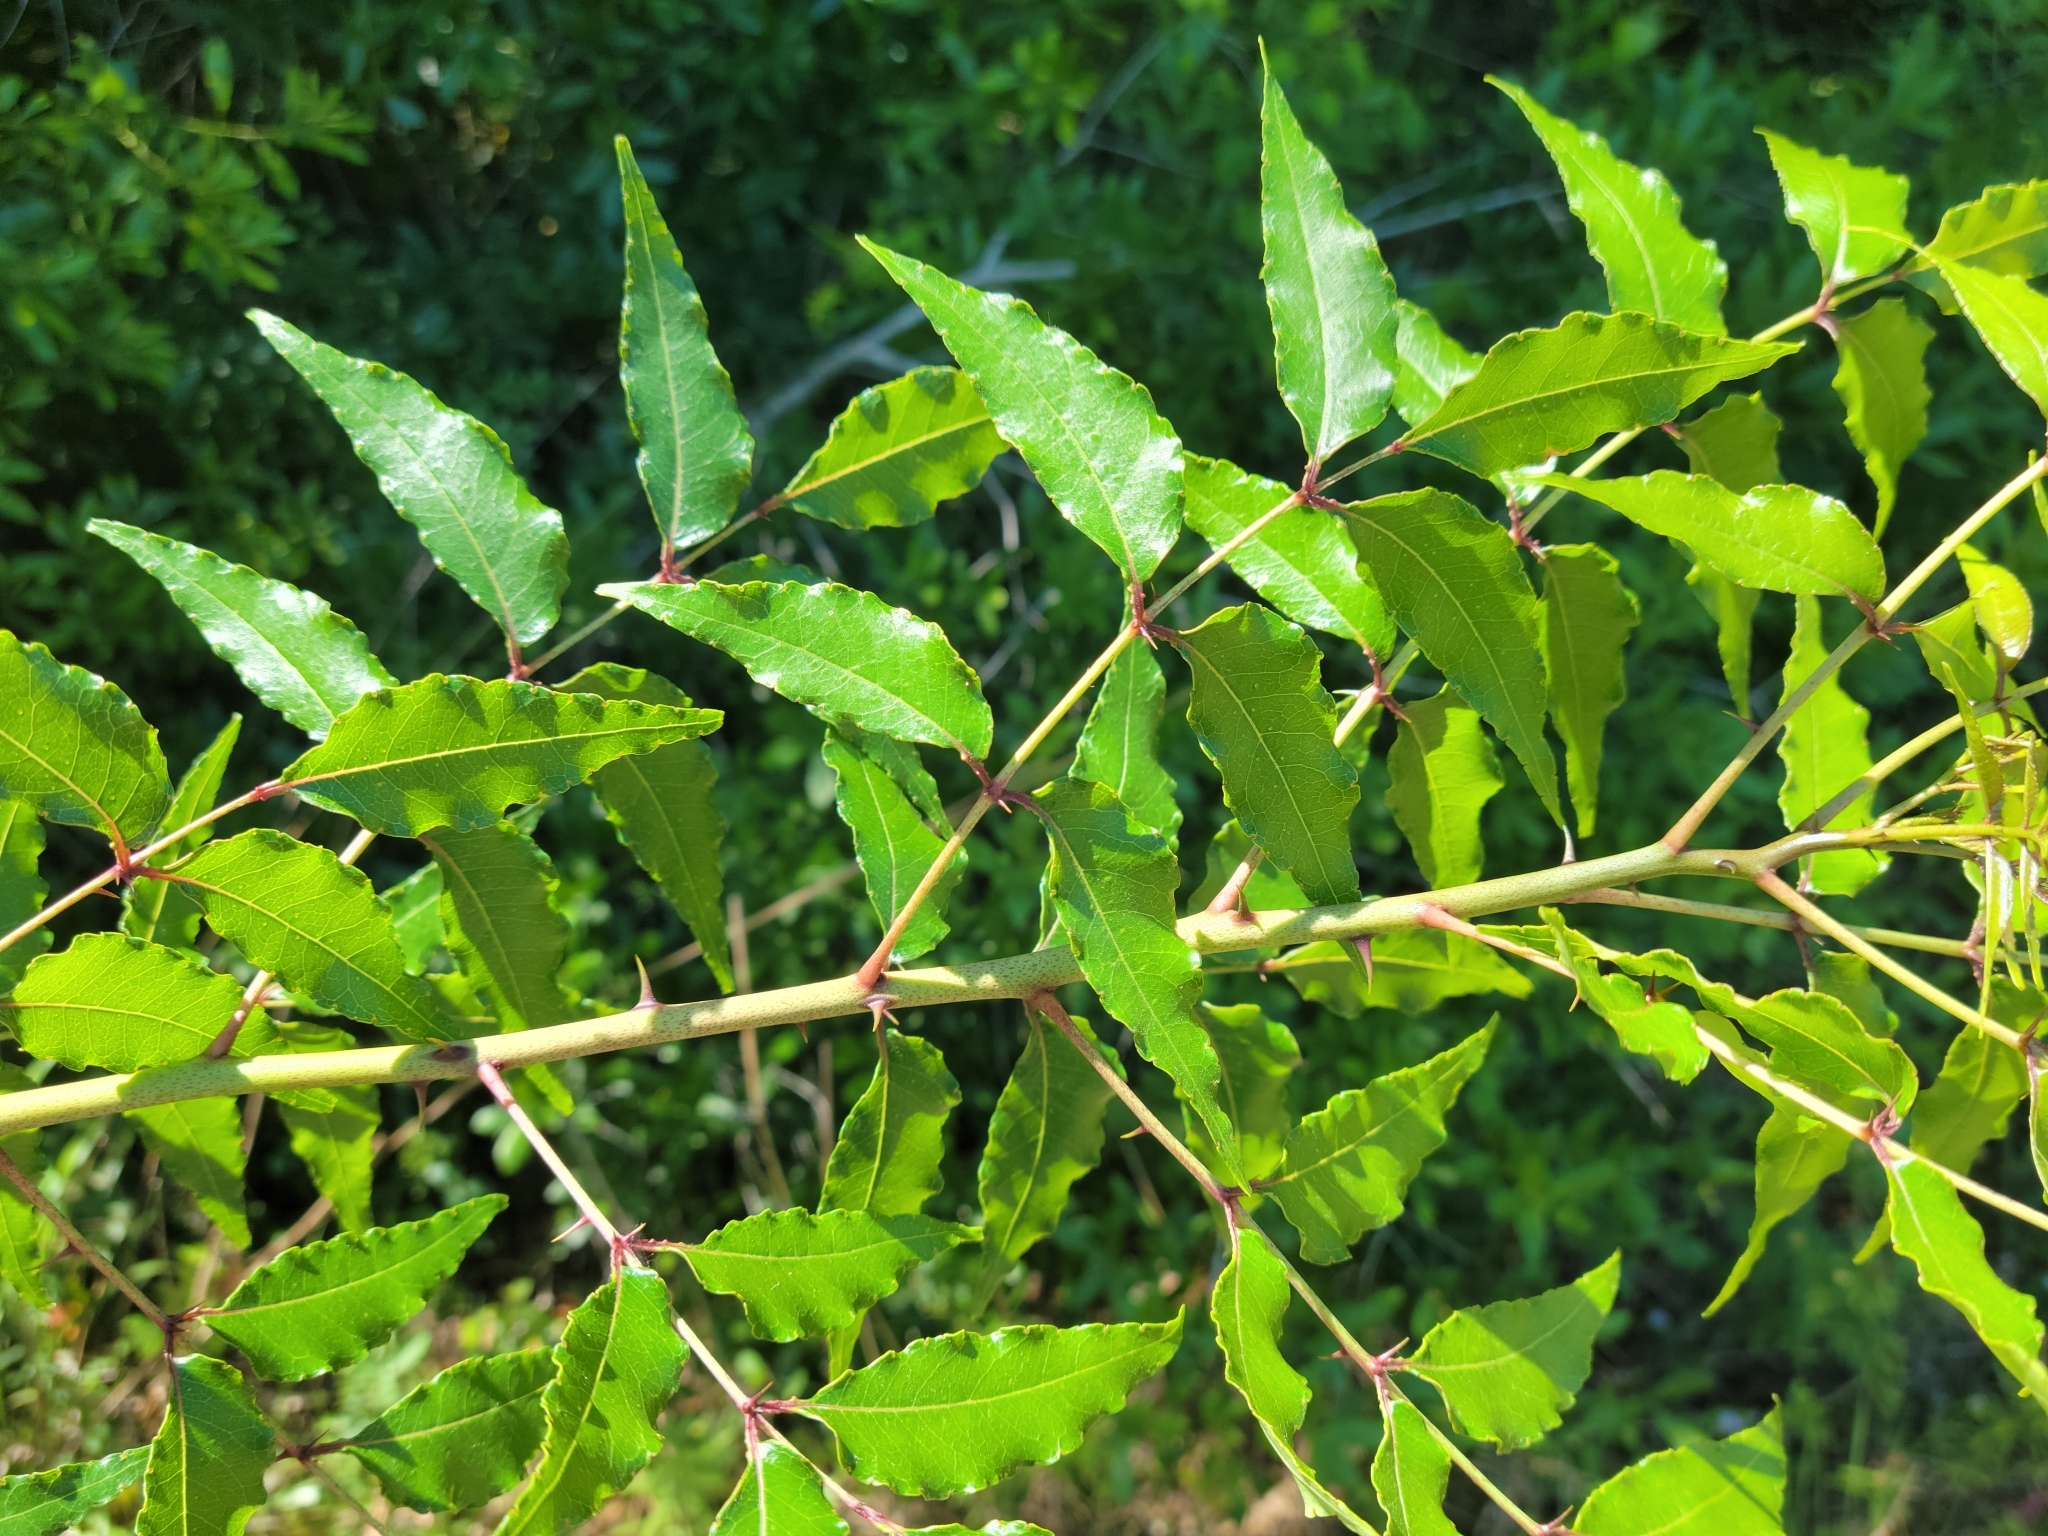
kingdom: Plantae
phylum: Tracheophyta
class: Magnoliopsida
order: Sapindales
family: Rutaceae
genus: Zanthoxylum
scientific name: Zanthoxylum clava-herculis
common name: Hercules'-club
